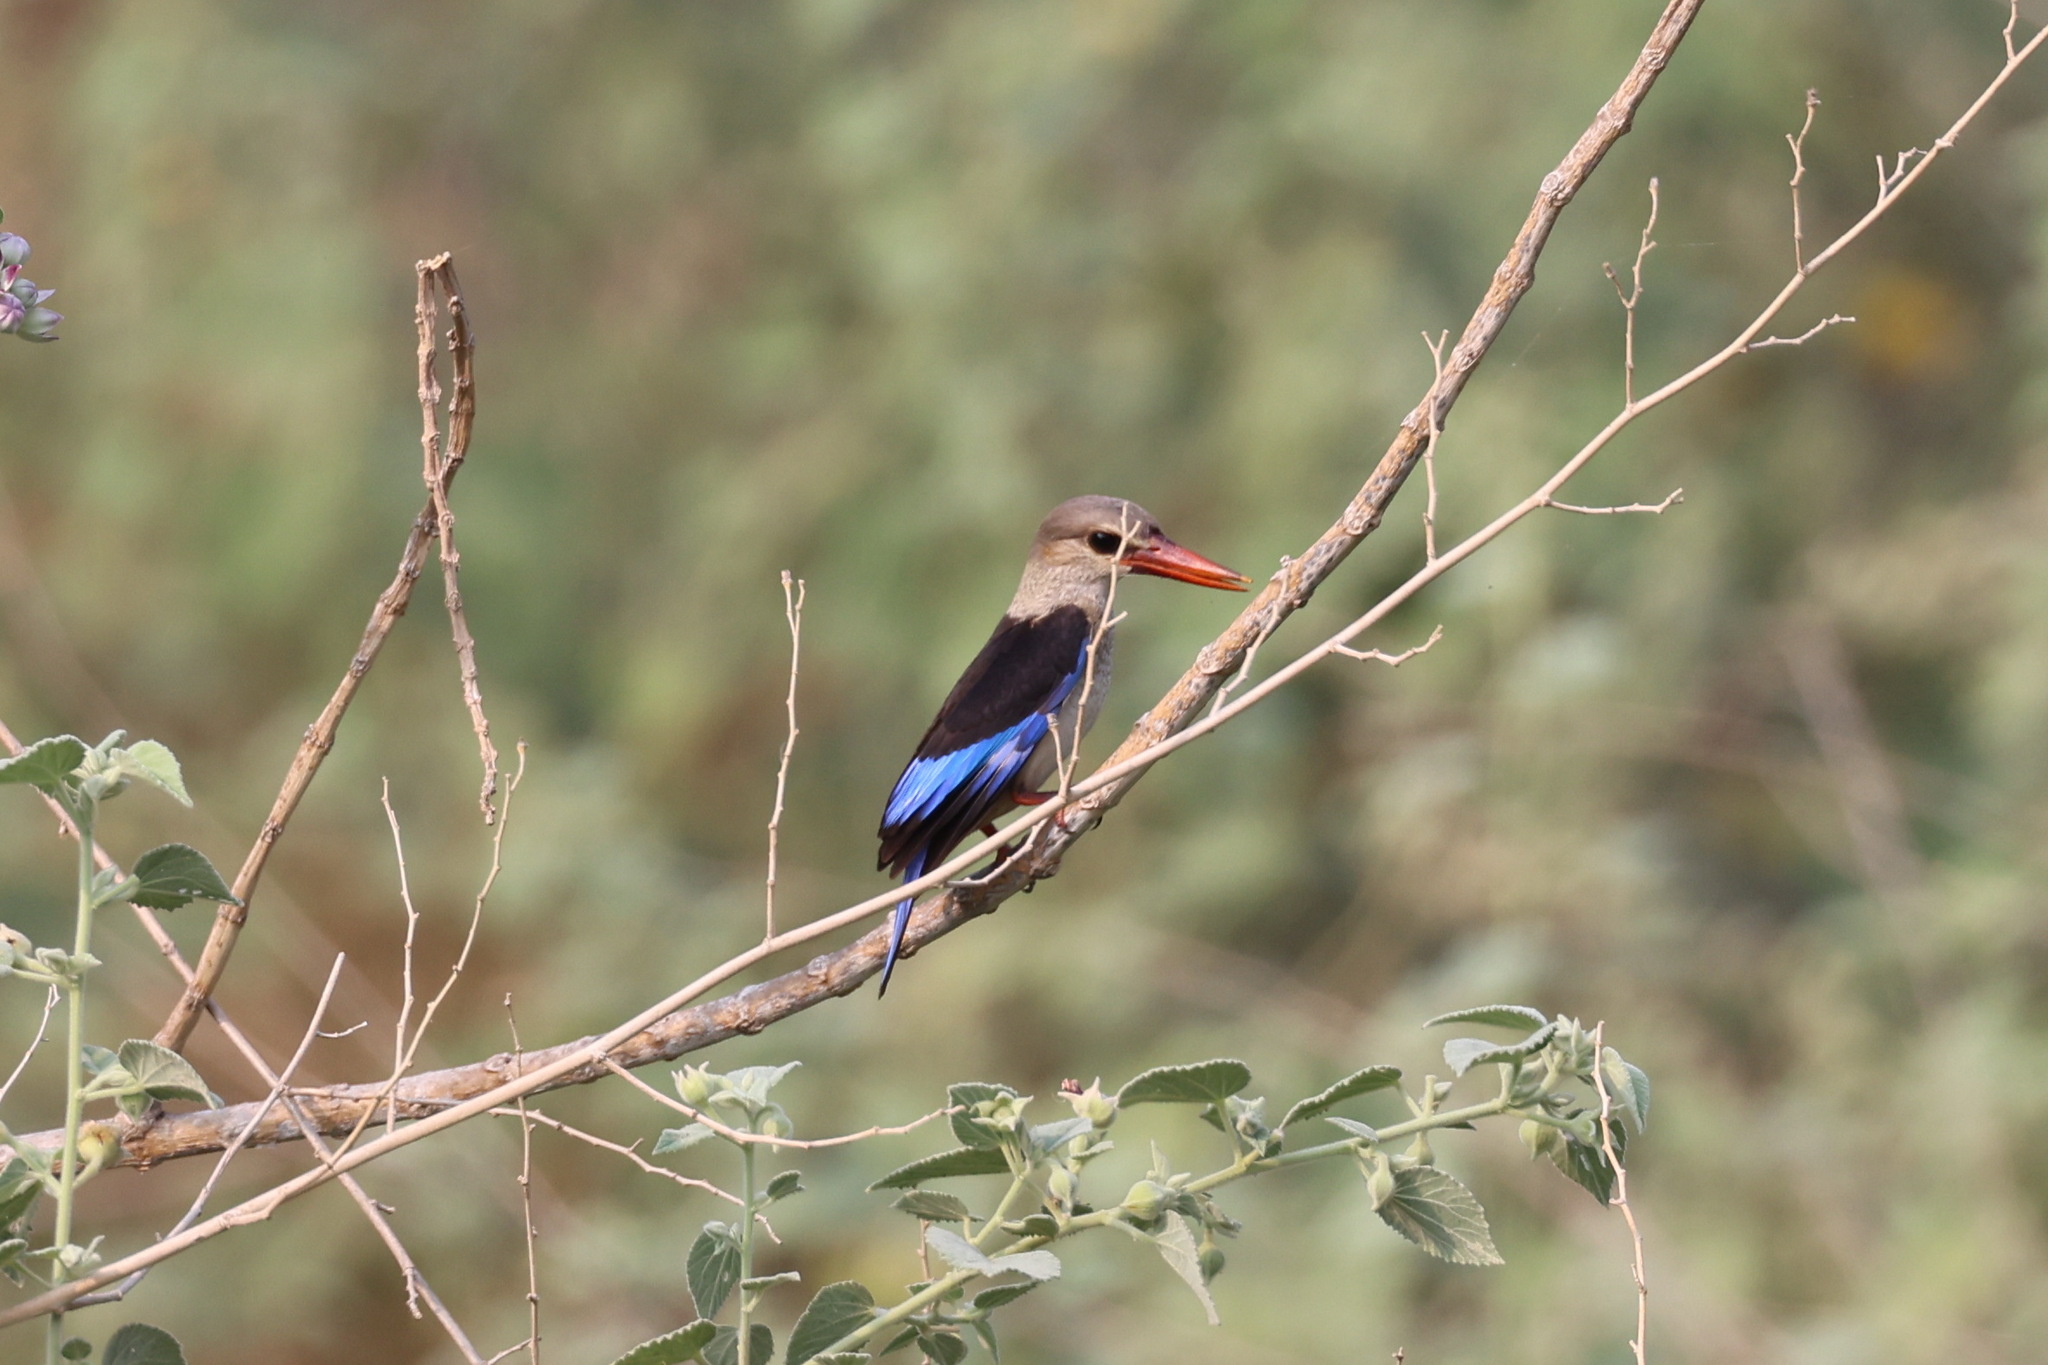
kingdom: Animalia
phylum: Chordata
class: Aves
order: Coraciiformes
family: Alcedinidae
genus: Halcyon
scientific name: Halcyon leucocephala
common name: Grey-headed kingfisher
